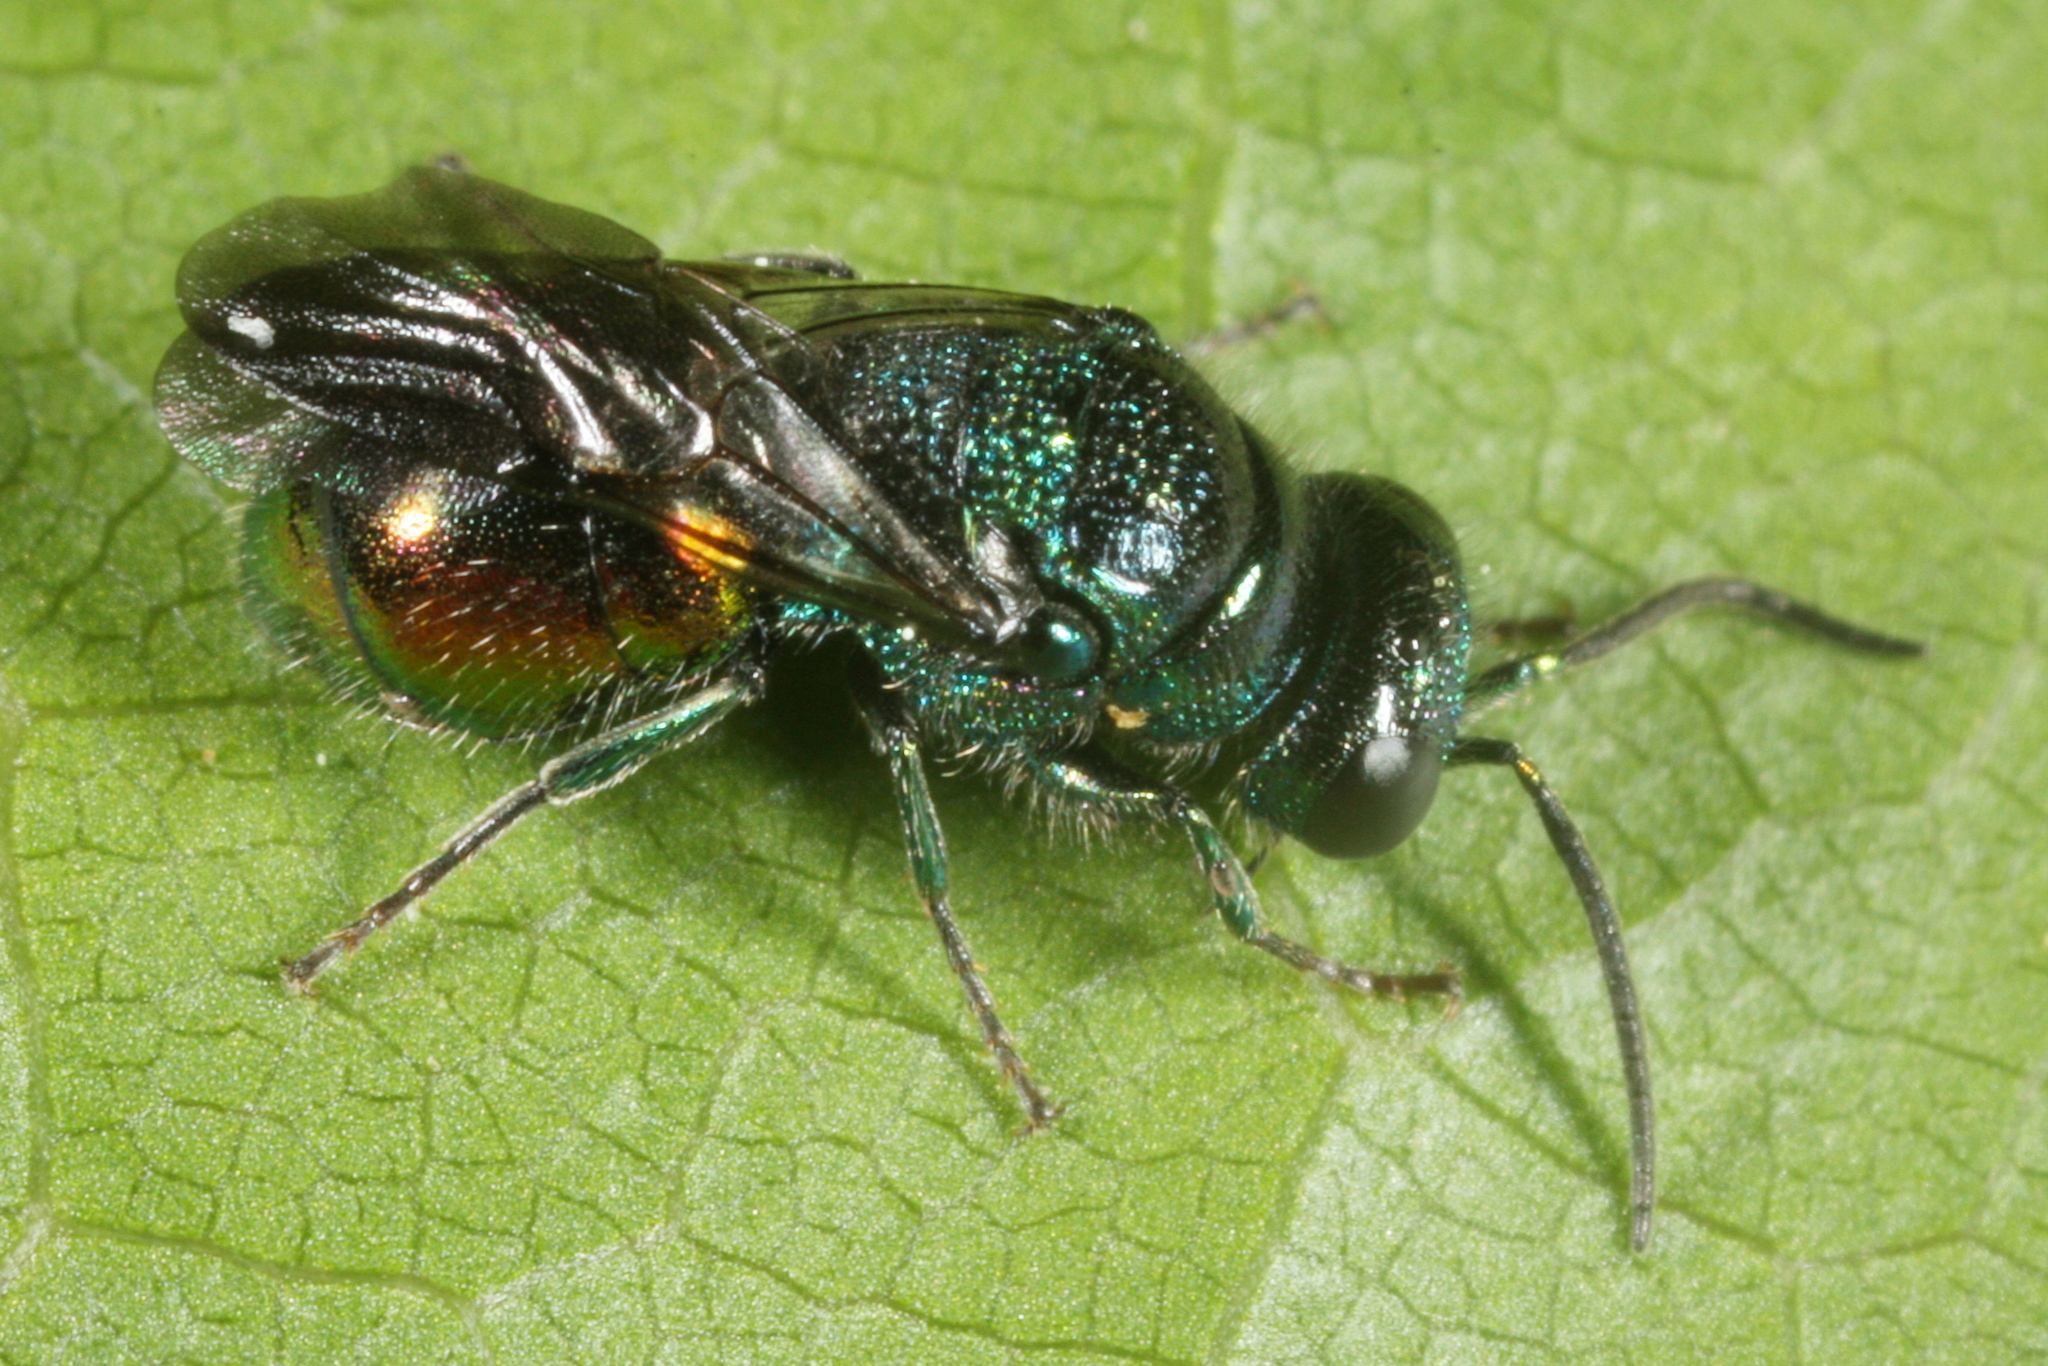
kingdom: Animalia
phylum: Arthropoda
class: Insecta
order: Hymenoptera
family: Chrysididae
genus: Pseudomalus
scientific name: Pseudomalus triangulifer
